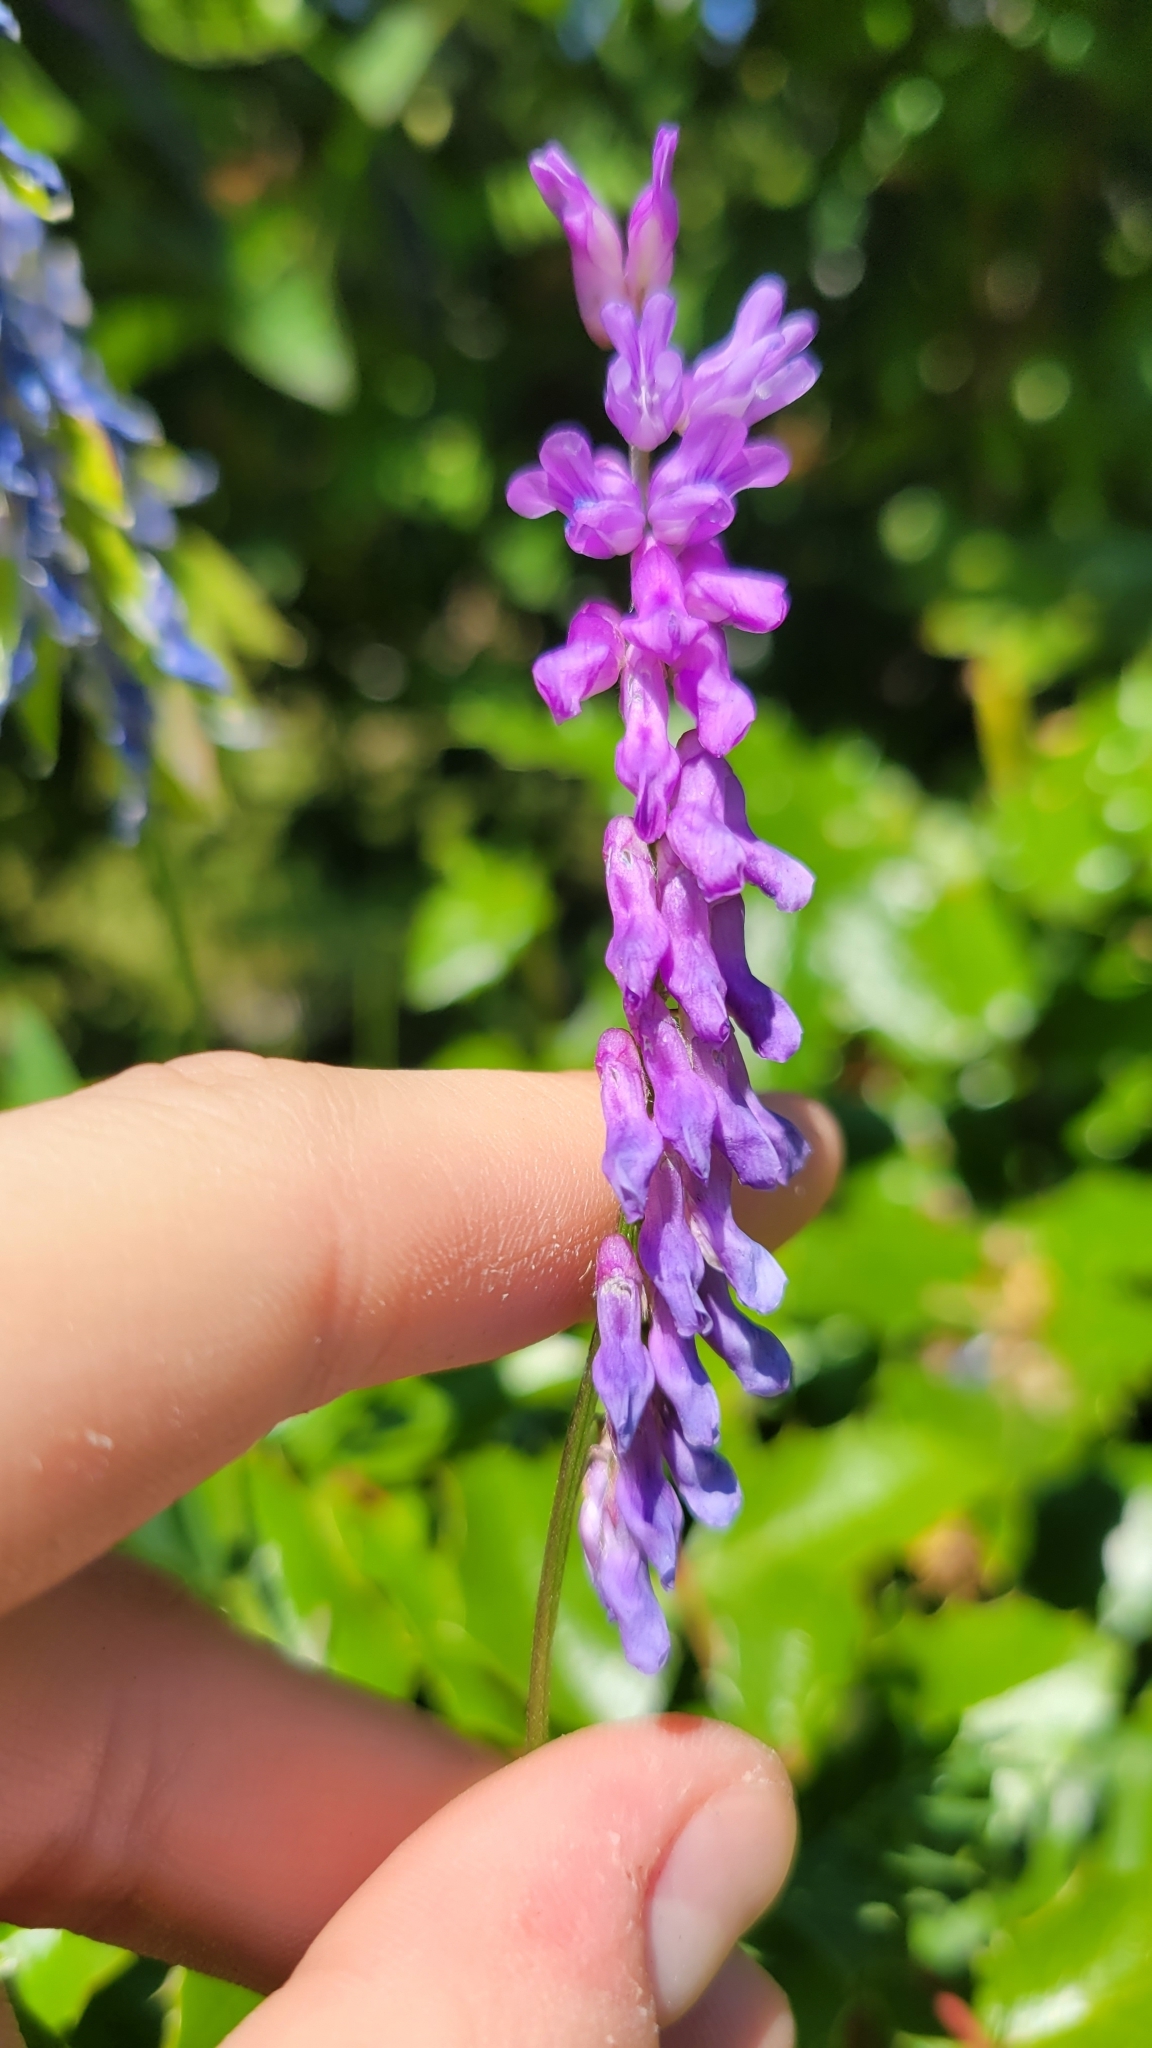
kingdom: Plantae
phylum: Tracheophyta
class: Magnoliopsida
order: Fabales
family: Fabaceae
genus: Vicia
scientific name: Vicia cracca
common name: Bird vetch
